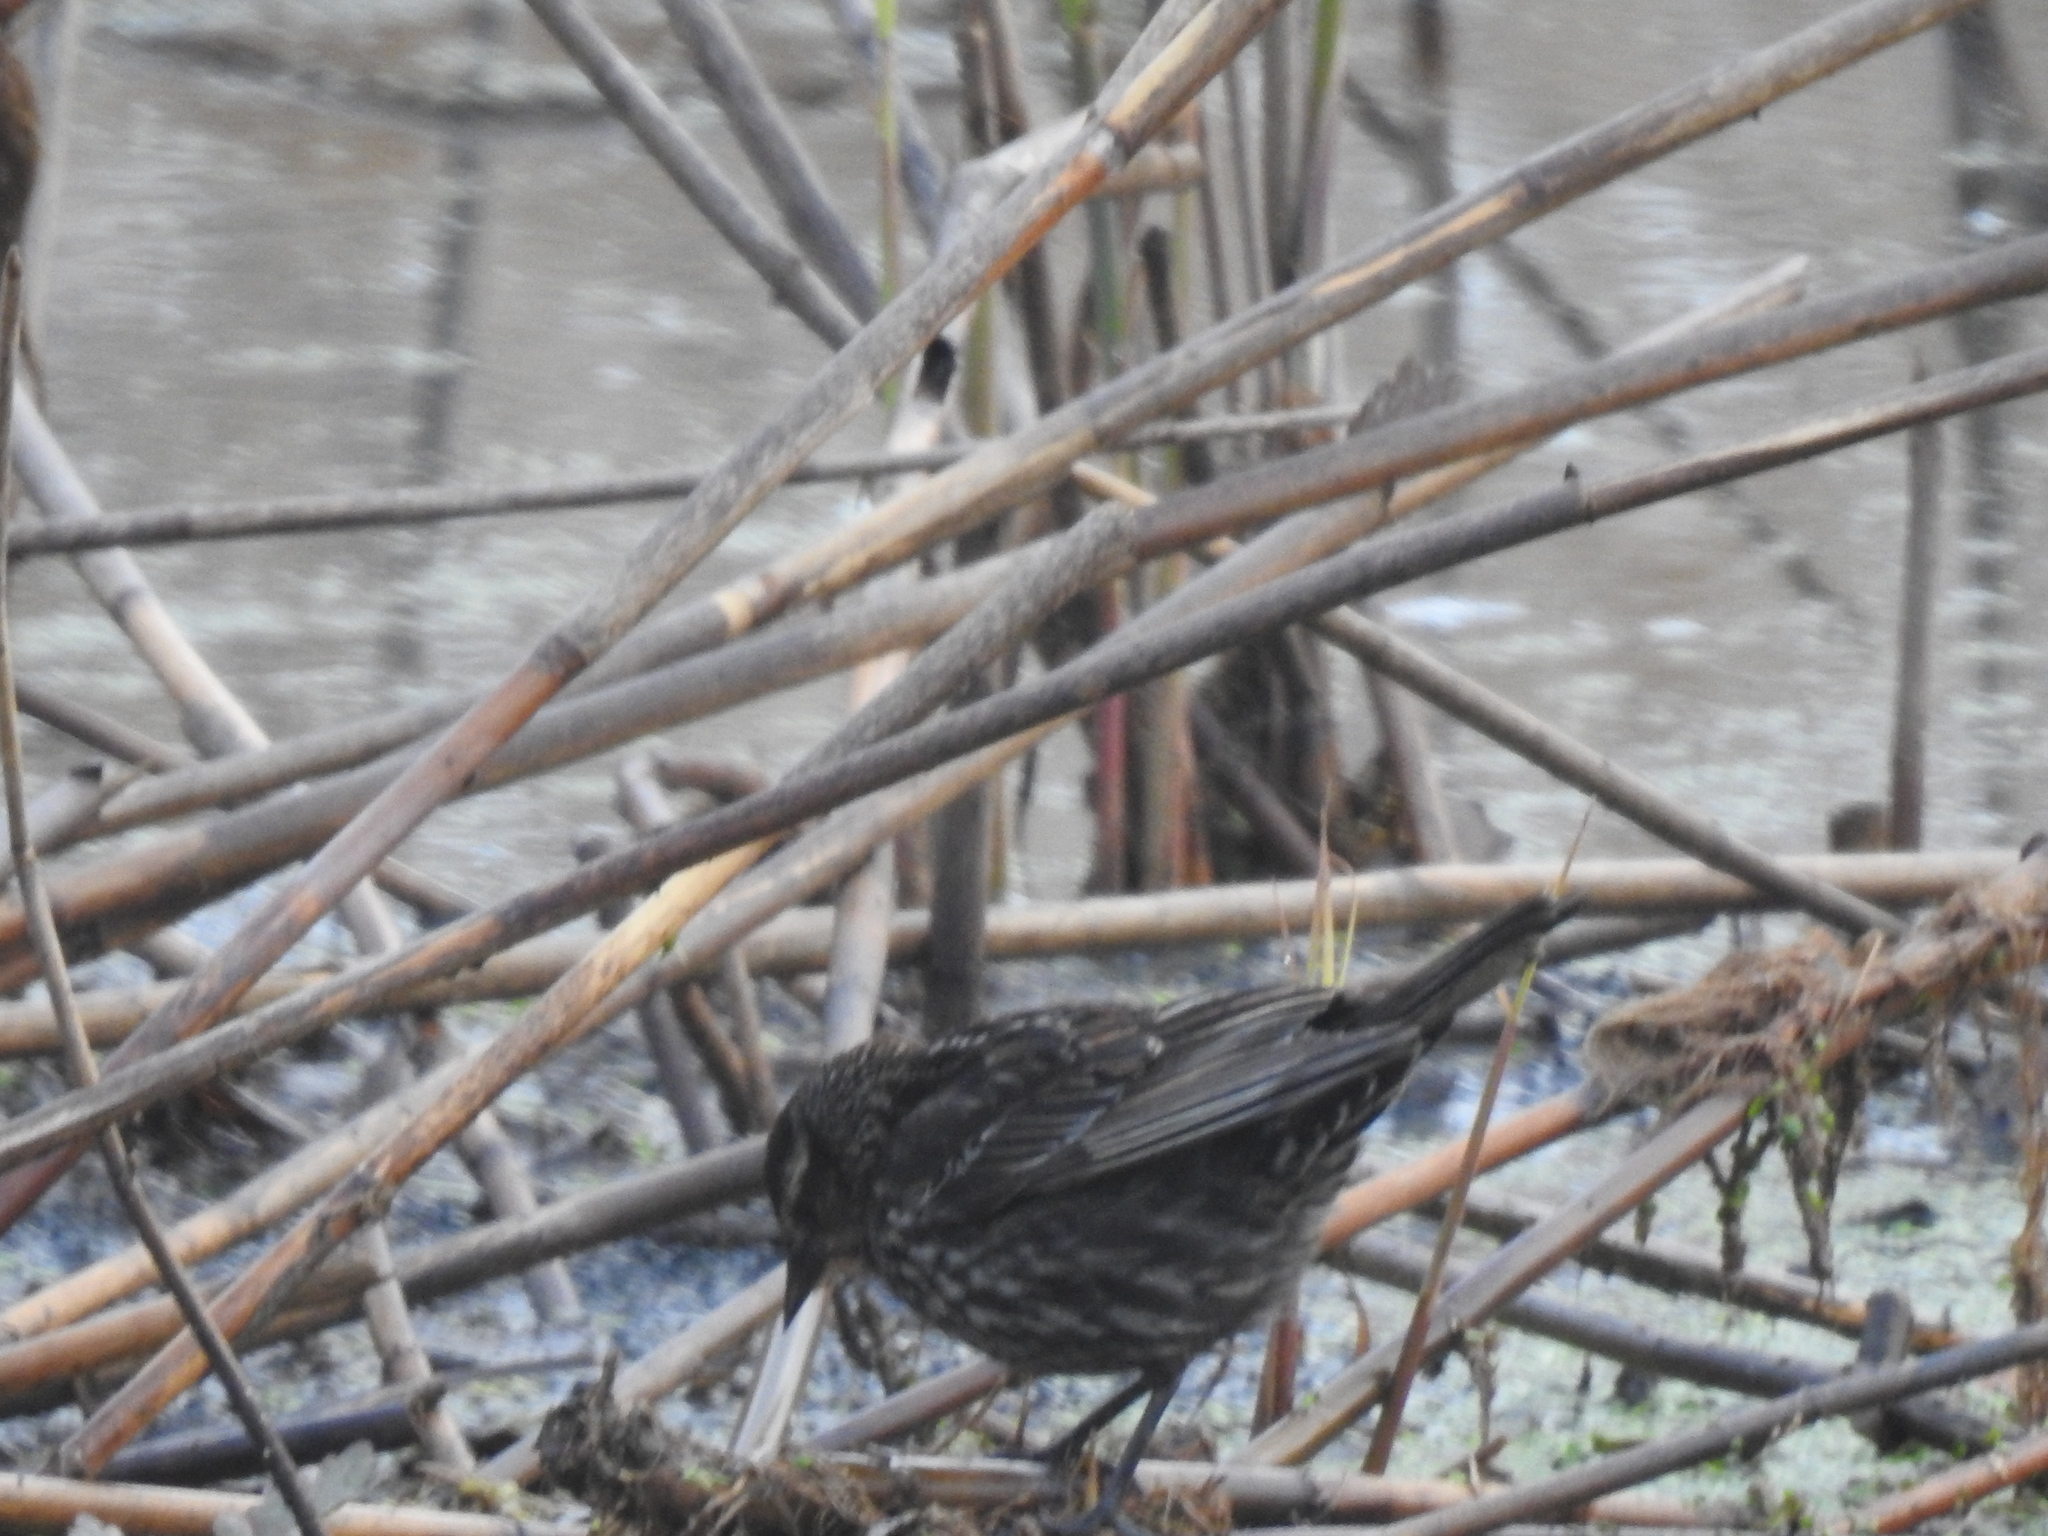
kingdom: Animalia
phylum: Chordata
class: Aves
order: Passeriformes
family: Icteridae
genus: Agelaius
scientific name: Agelaius phoeniceus
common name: Red-winged blackbird
